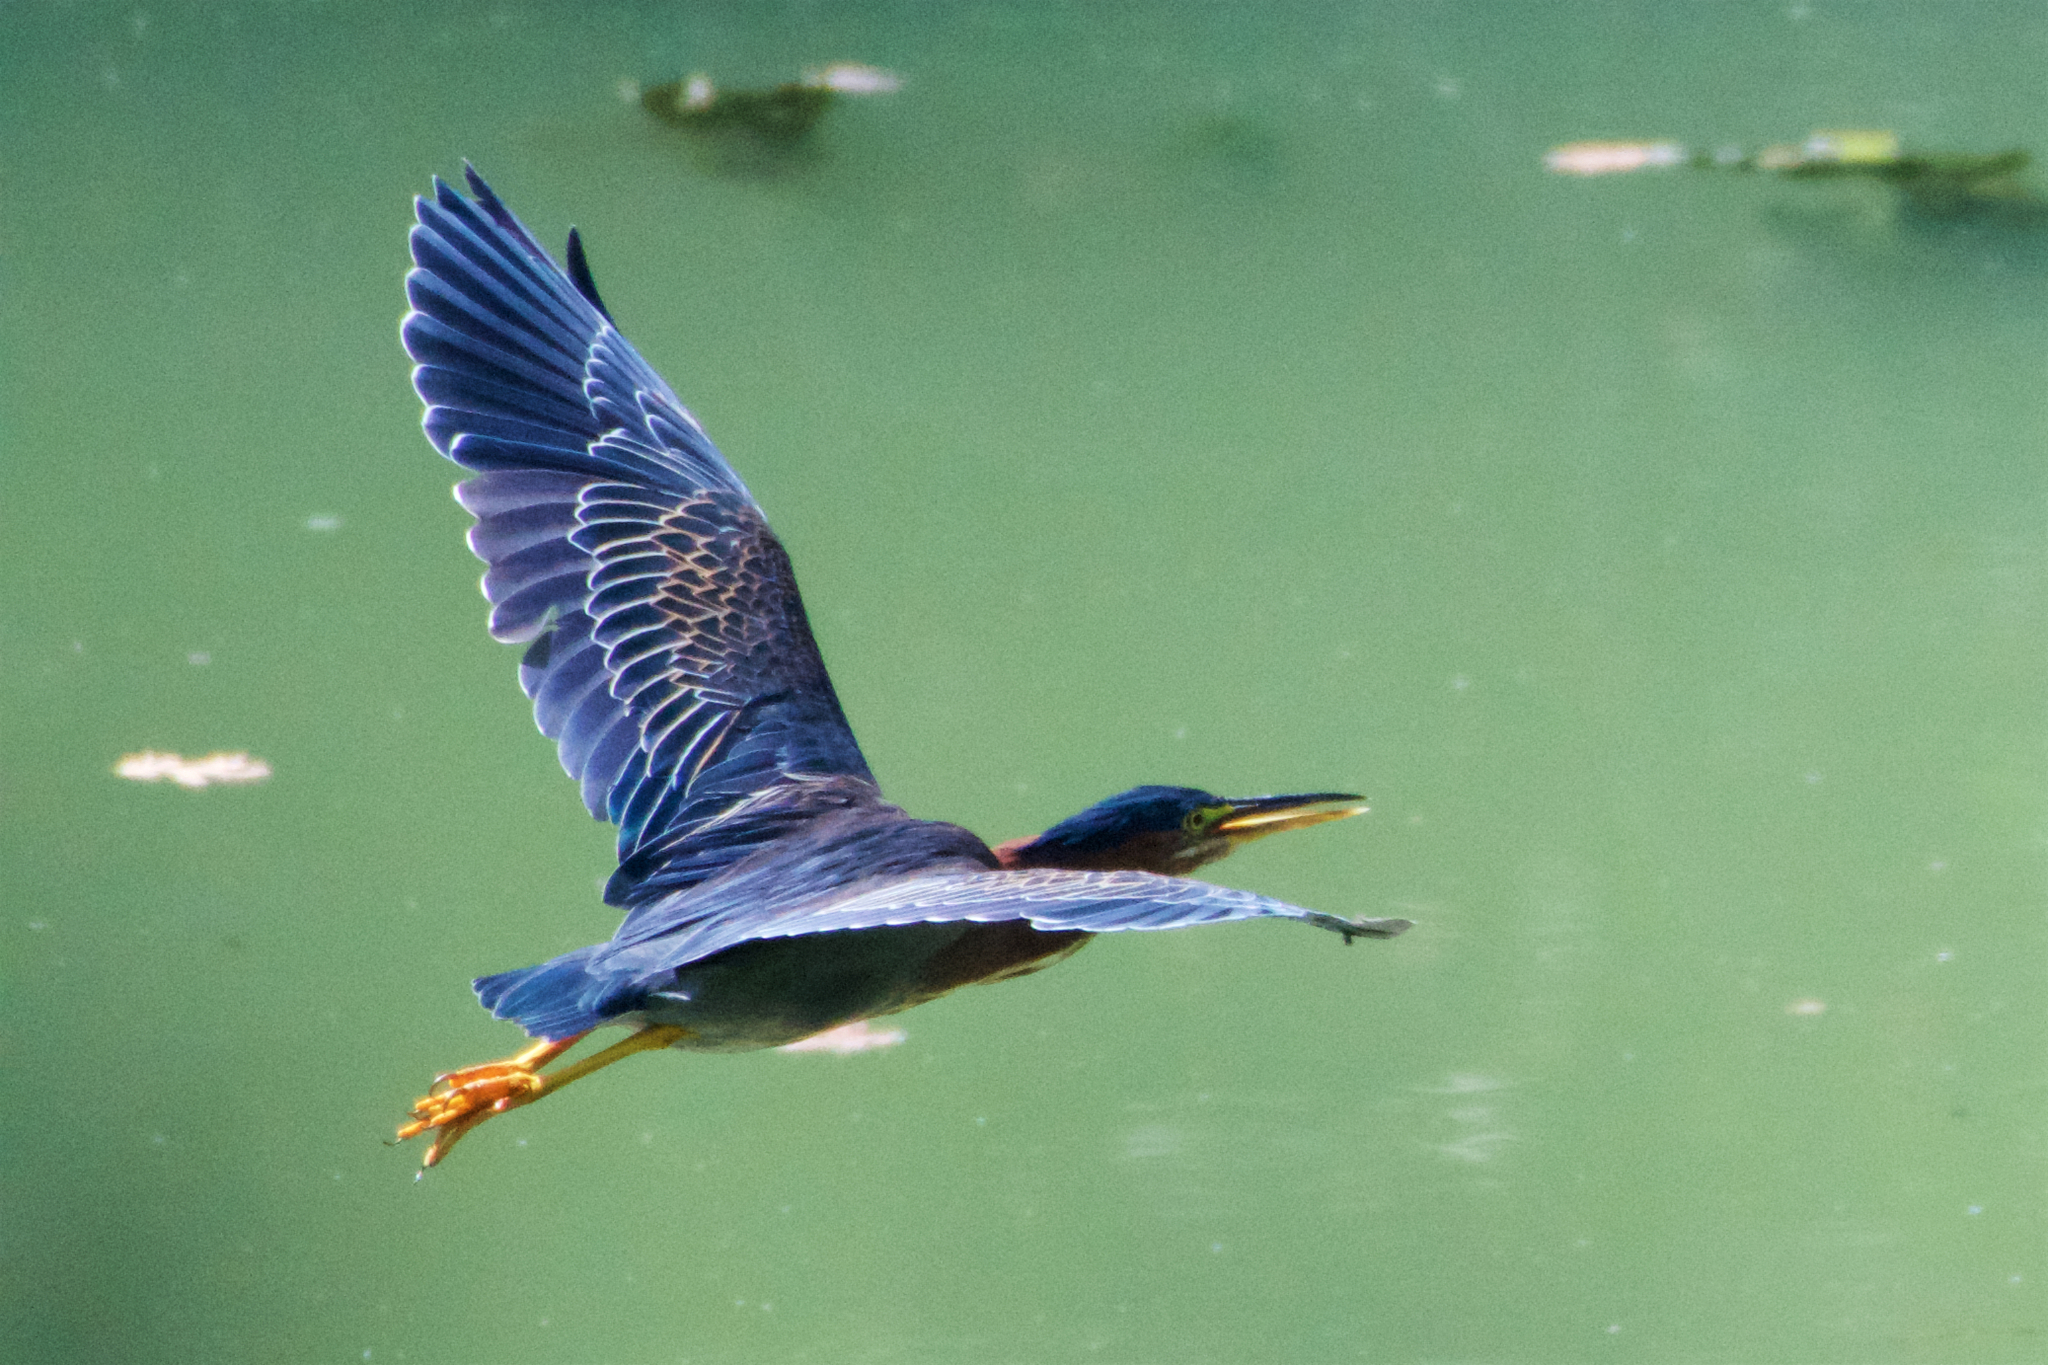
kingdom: Animalia
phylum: Chordata
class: Aves
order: Pelecaniformes
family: Ardeidae
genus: Butorides
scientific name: Butorides virescens
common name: Green heron
